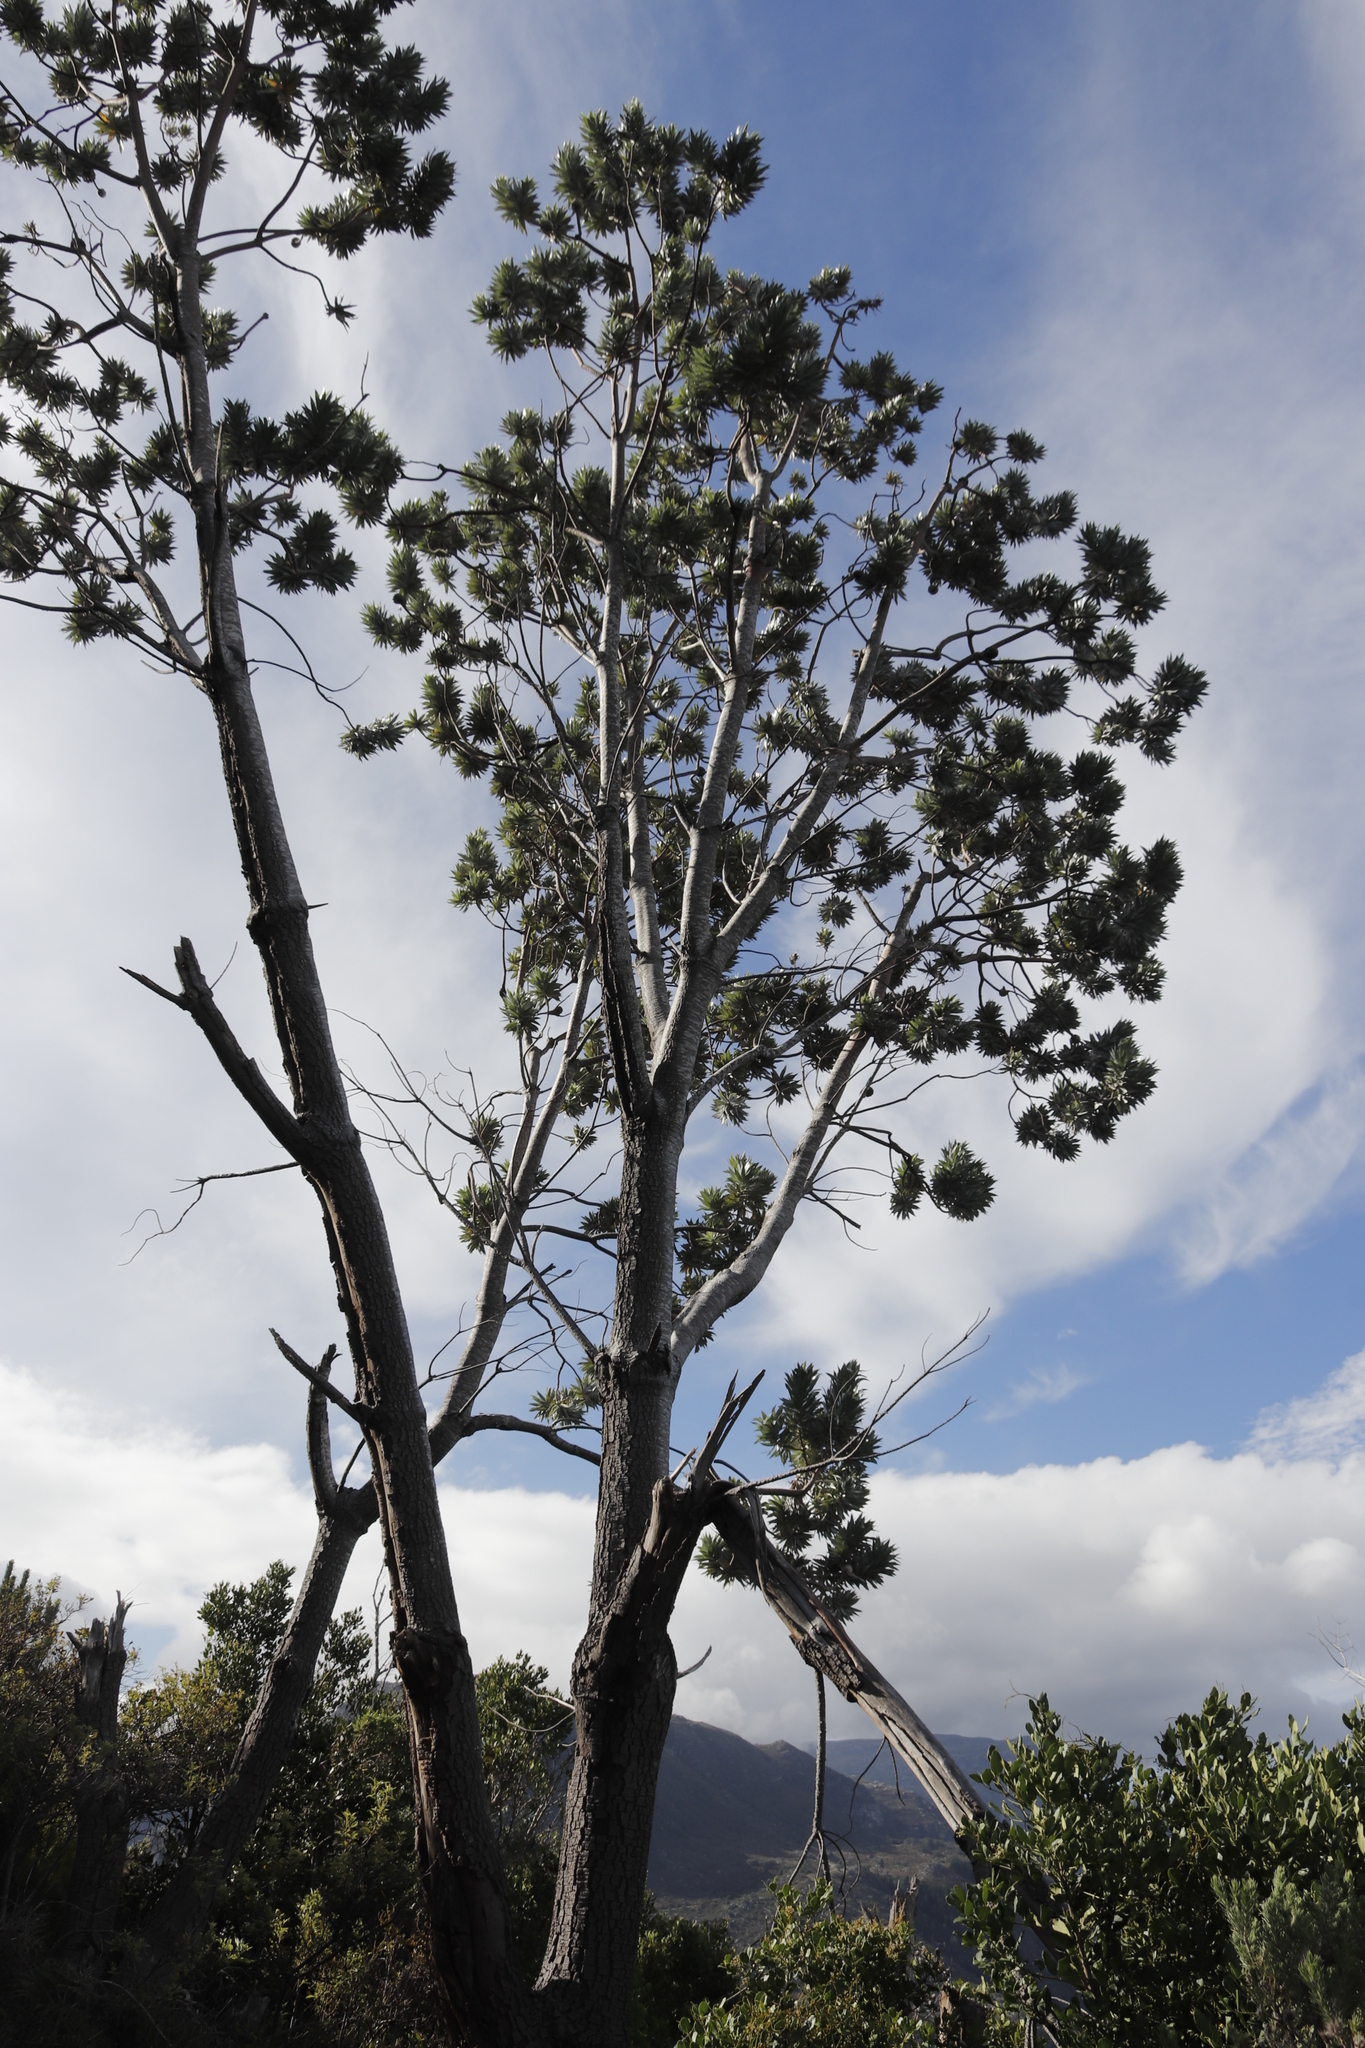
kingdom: Plantae
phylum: Tracheophyta
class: Magnoliopsida
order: Proteales
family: Proteaceae
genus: Leucadendron
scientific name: Leucadendron argenteum
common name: Cape silver tree
